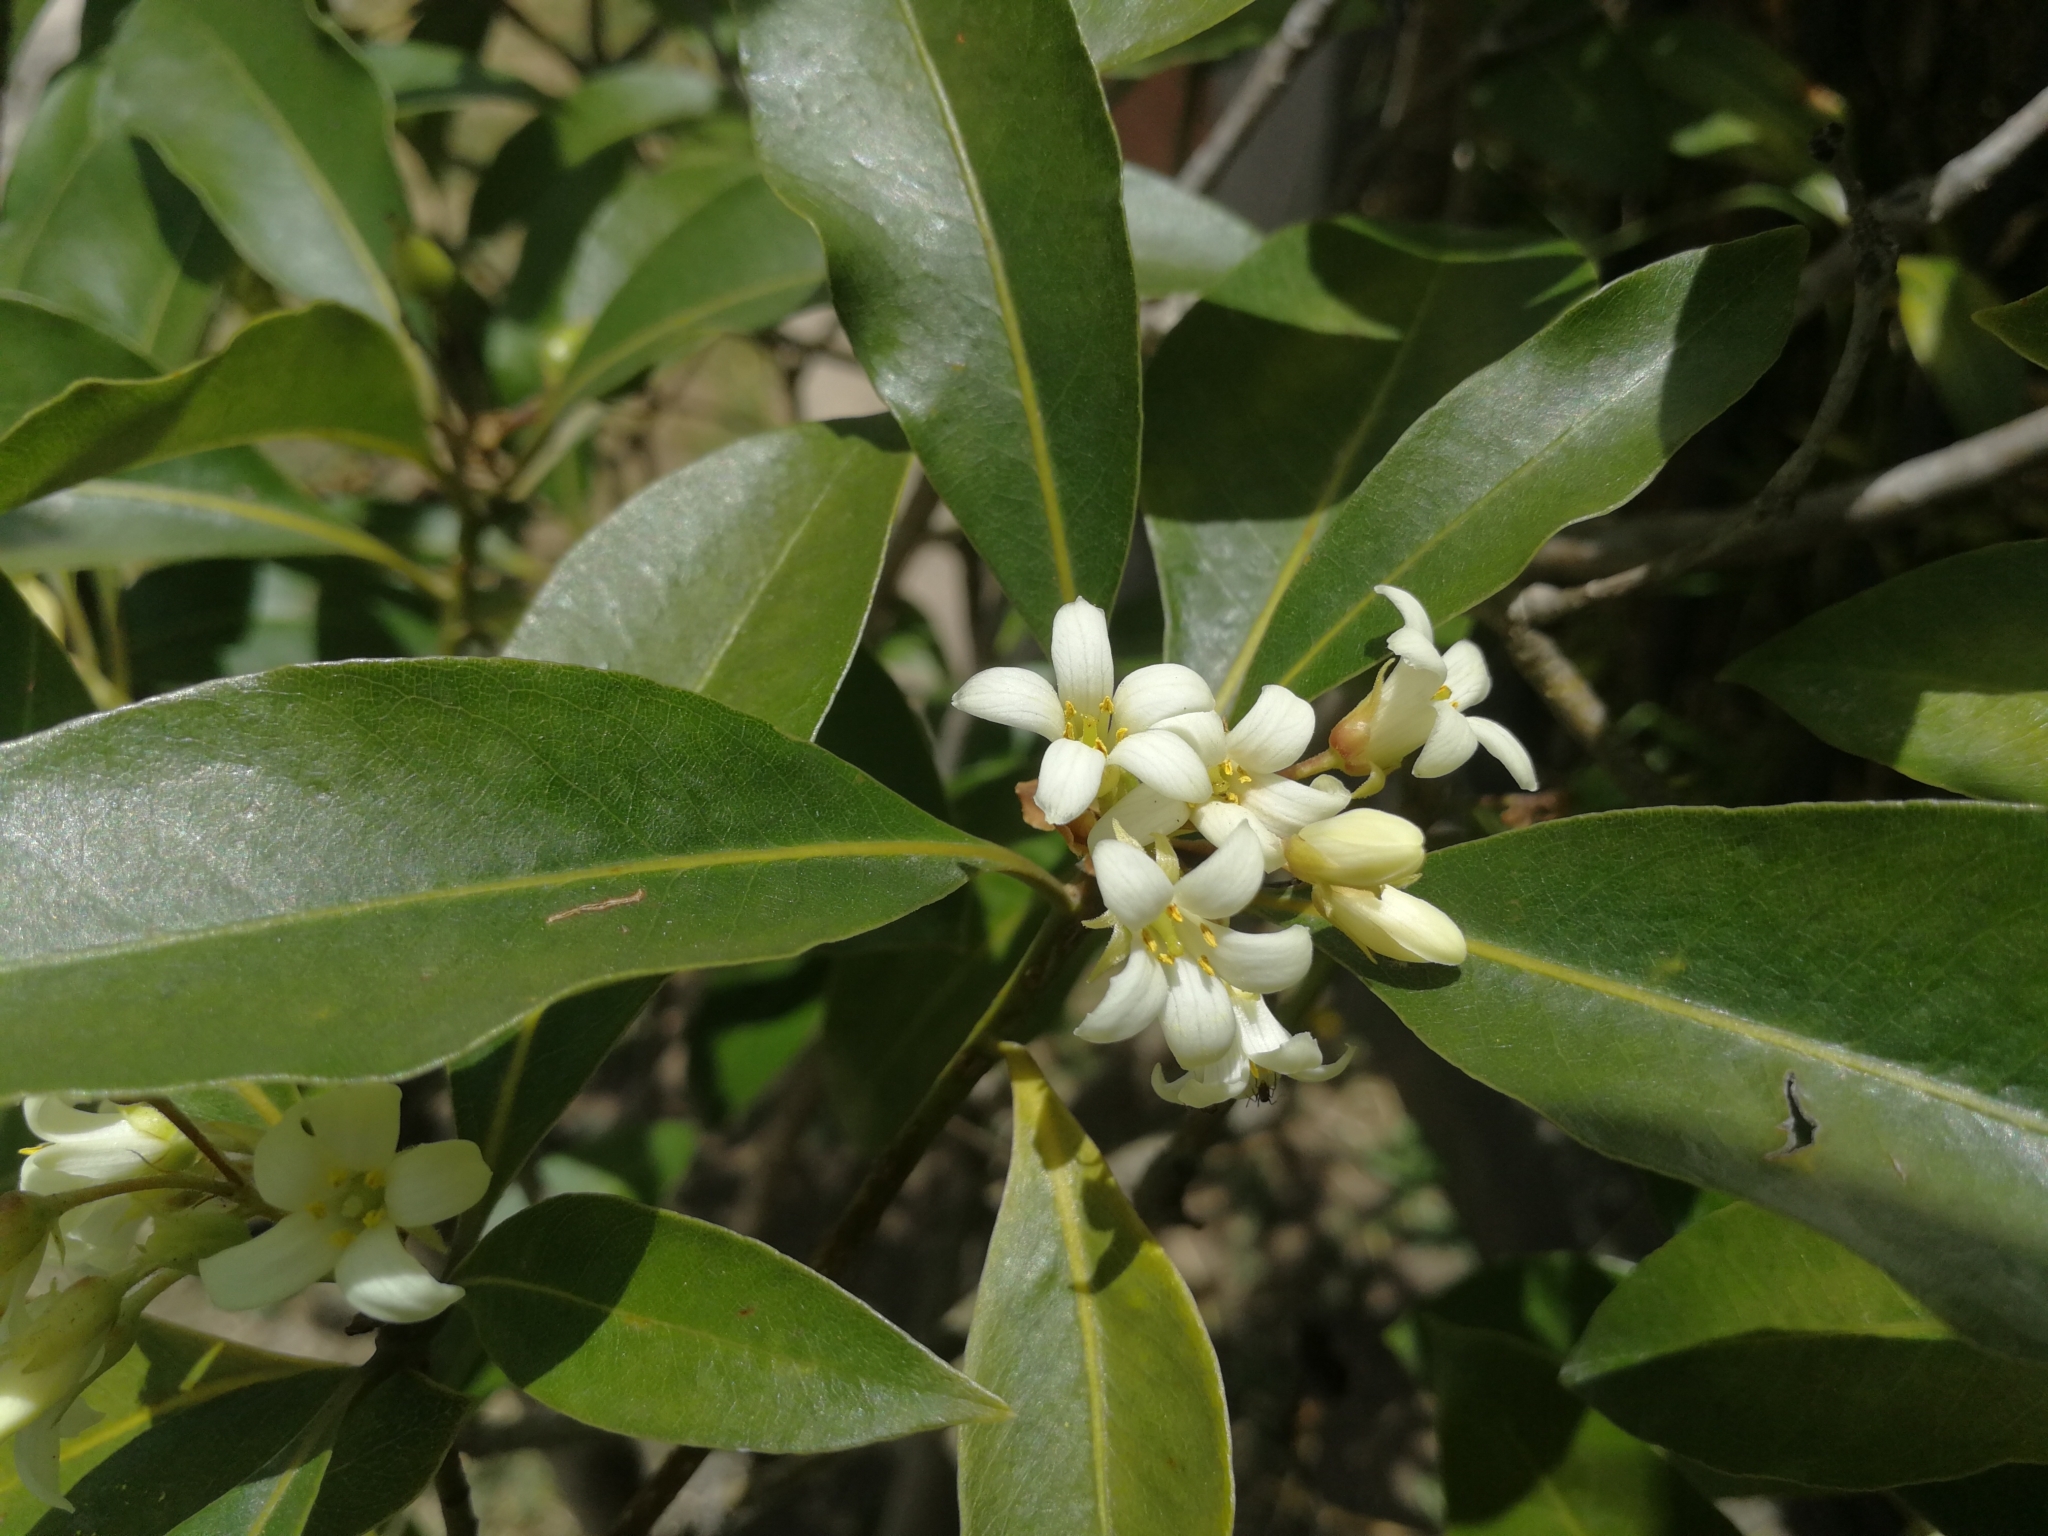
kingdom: Plantae
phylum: Tracheophyta
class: Magnoliopsida
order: Apiales
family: Pittosporaceae
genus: Pittosporum
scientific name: Pittosporum undulatum
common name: Australian cheesewood
